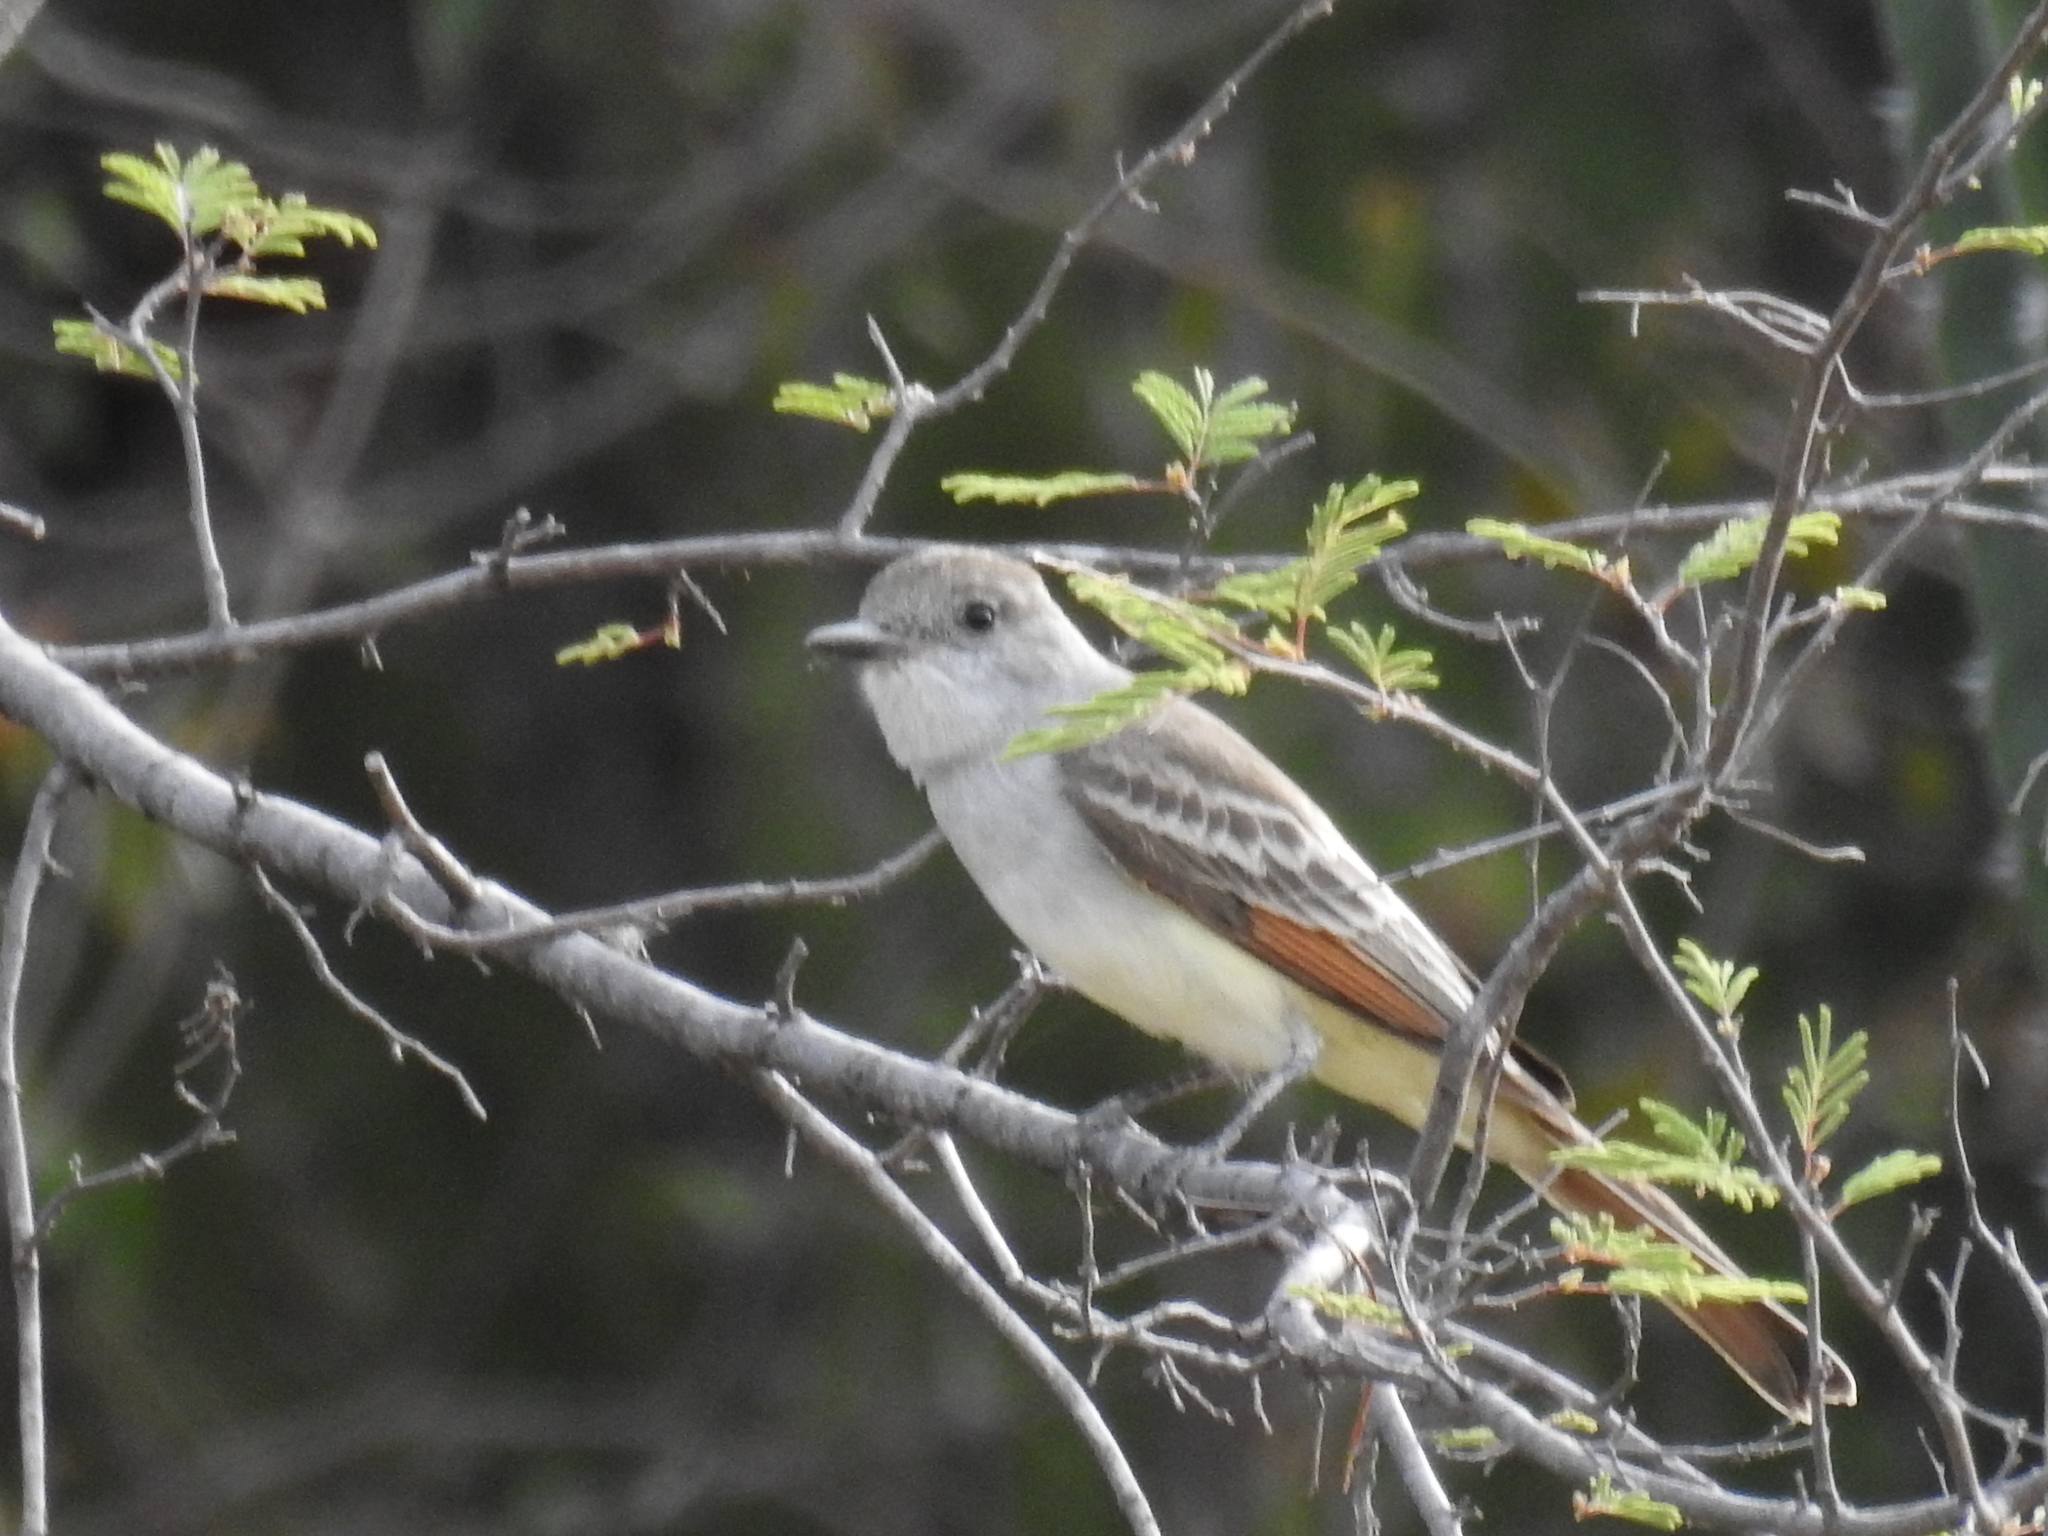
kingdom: Animalia
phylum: Chordata
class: Aves
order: Passeriformes
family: Tyrannidae
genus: Myiarchus
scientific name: Myiarchus
